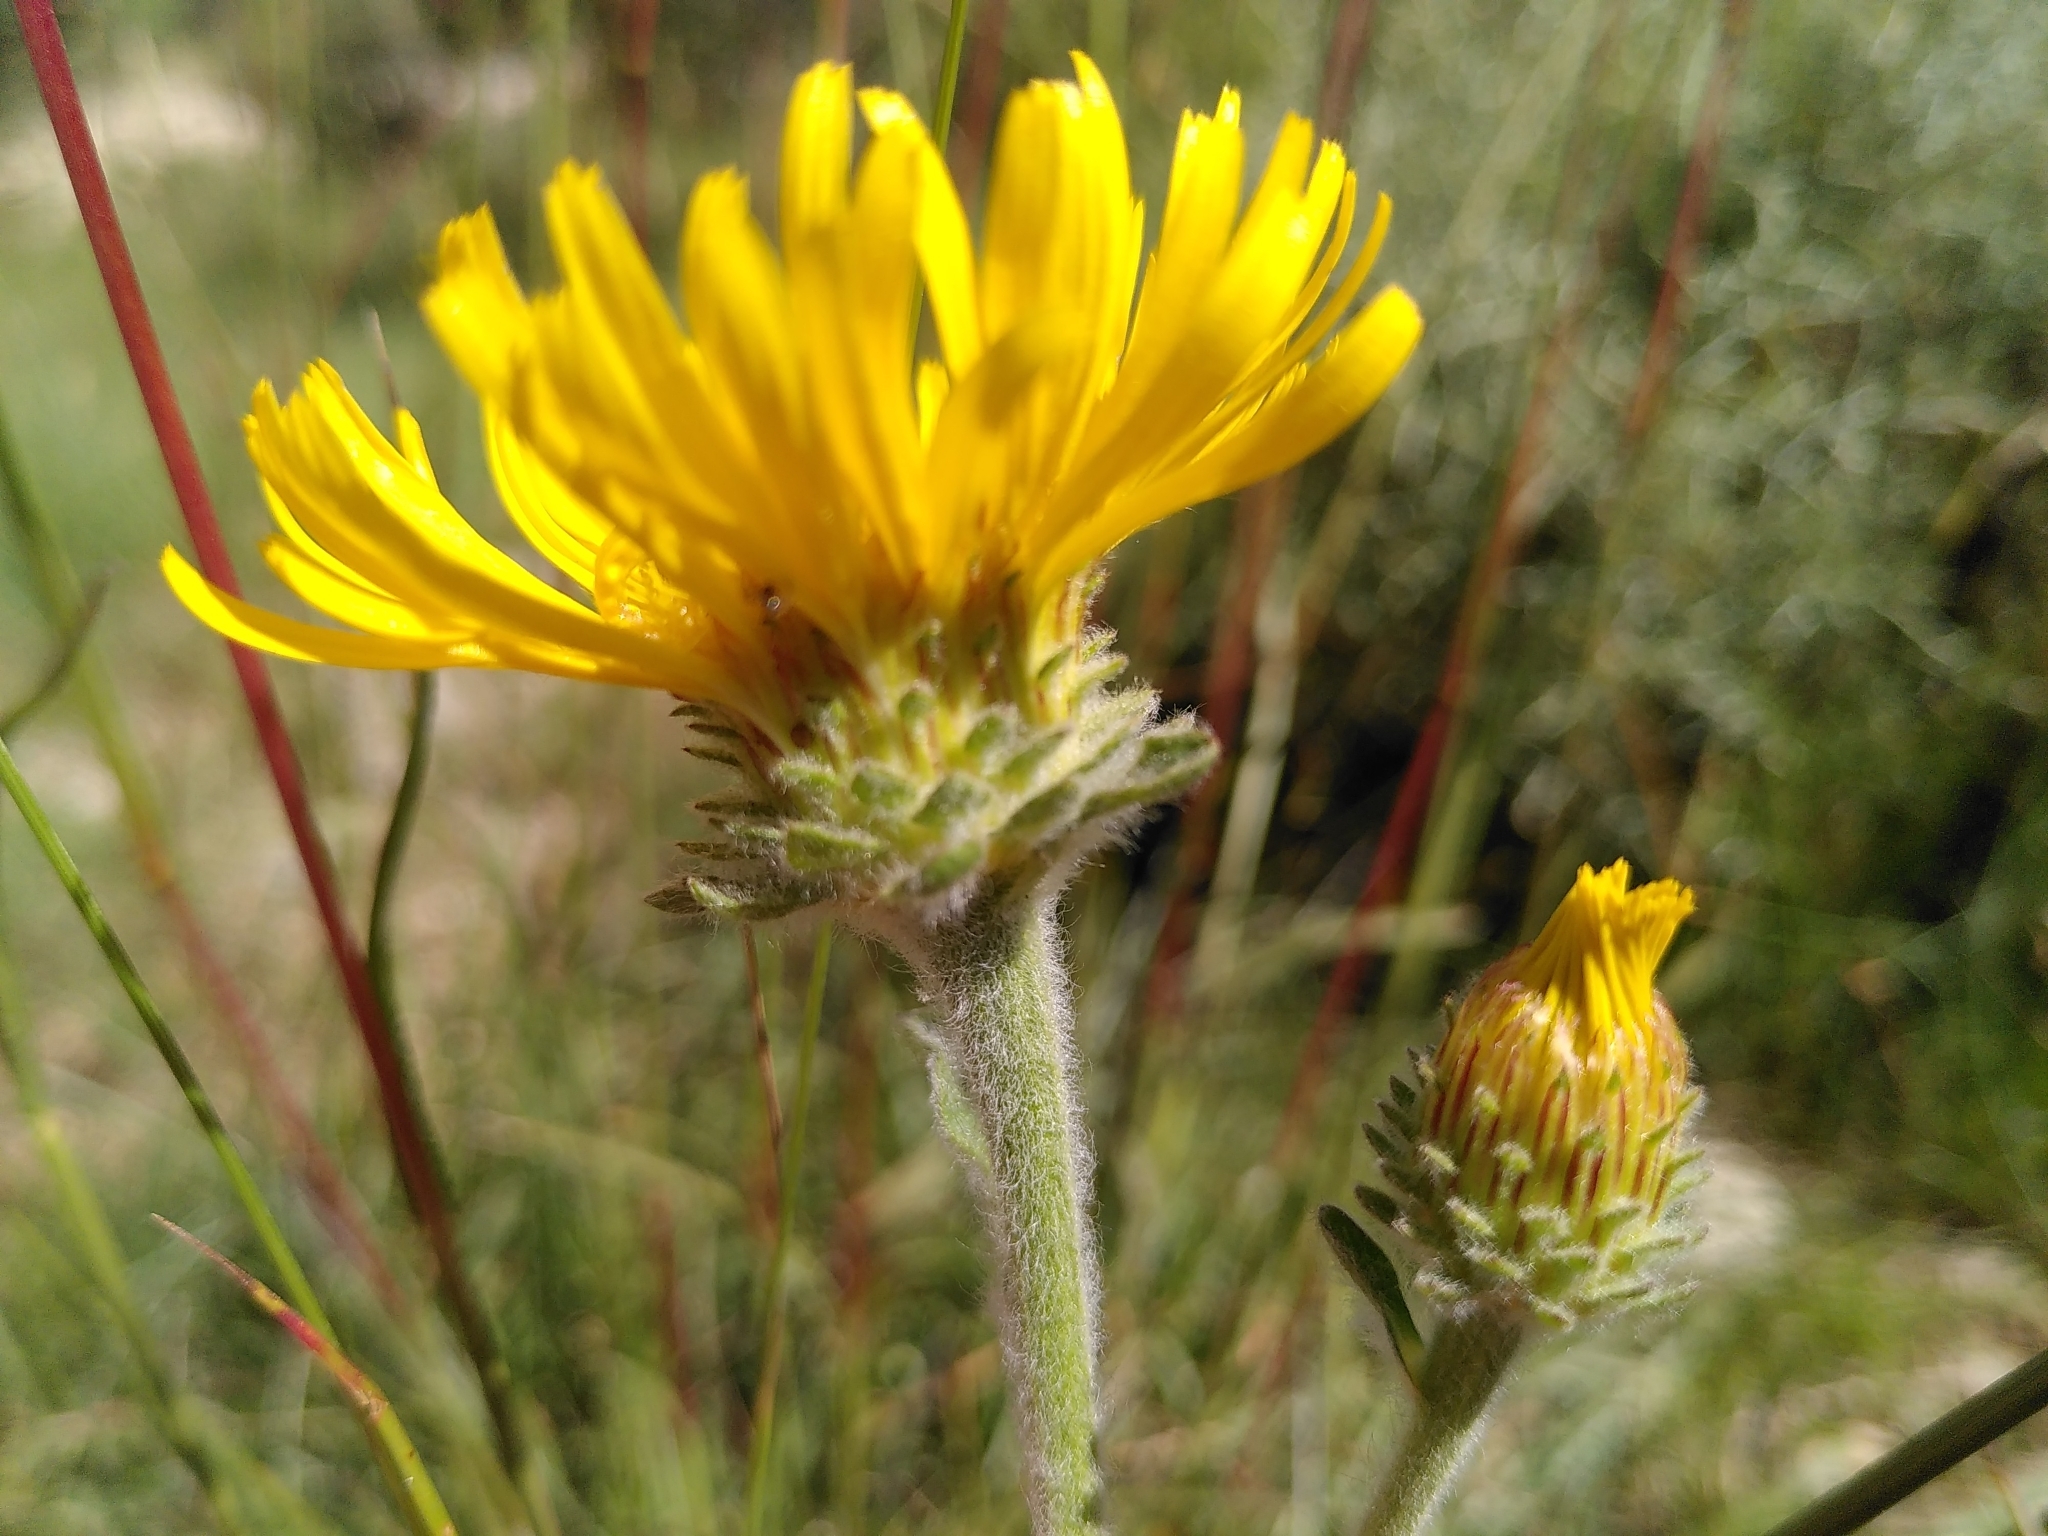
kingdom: Plantae
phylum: Tracheophyta
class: Magnoliopsida
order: Asterales
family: Asteraceae
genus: Pentanema
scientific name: Pentanema montanum
